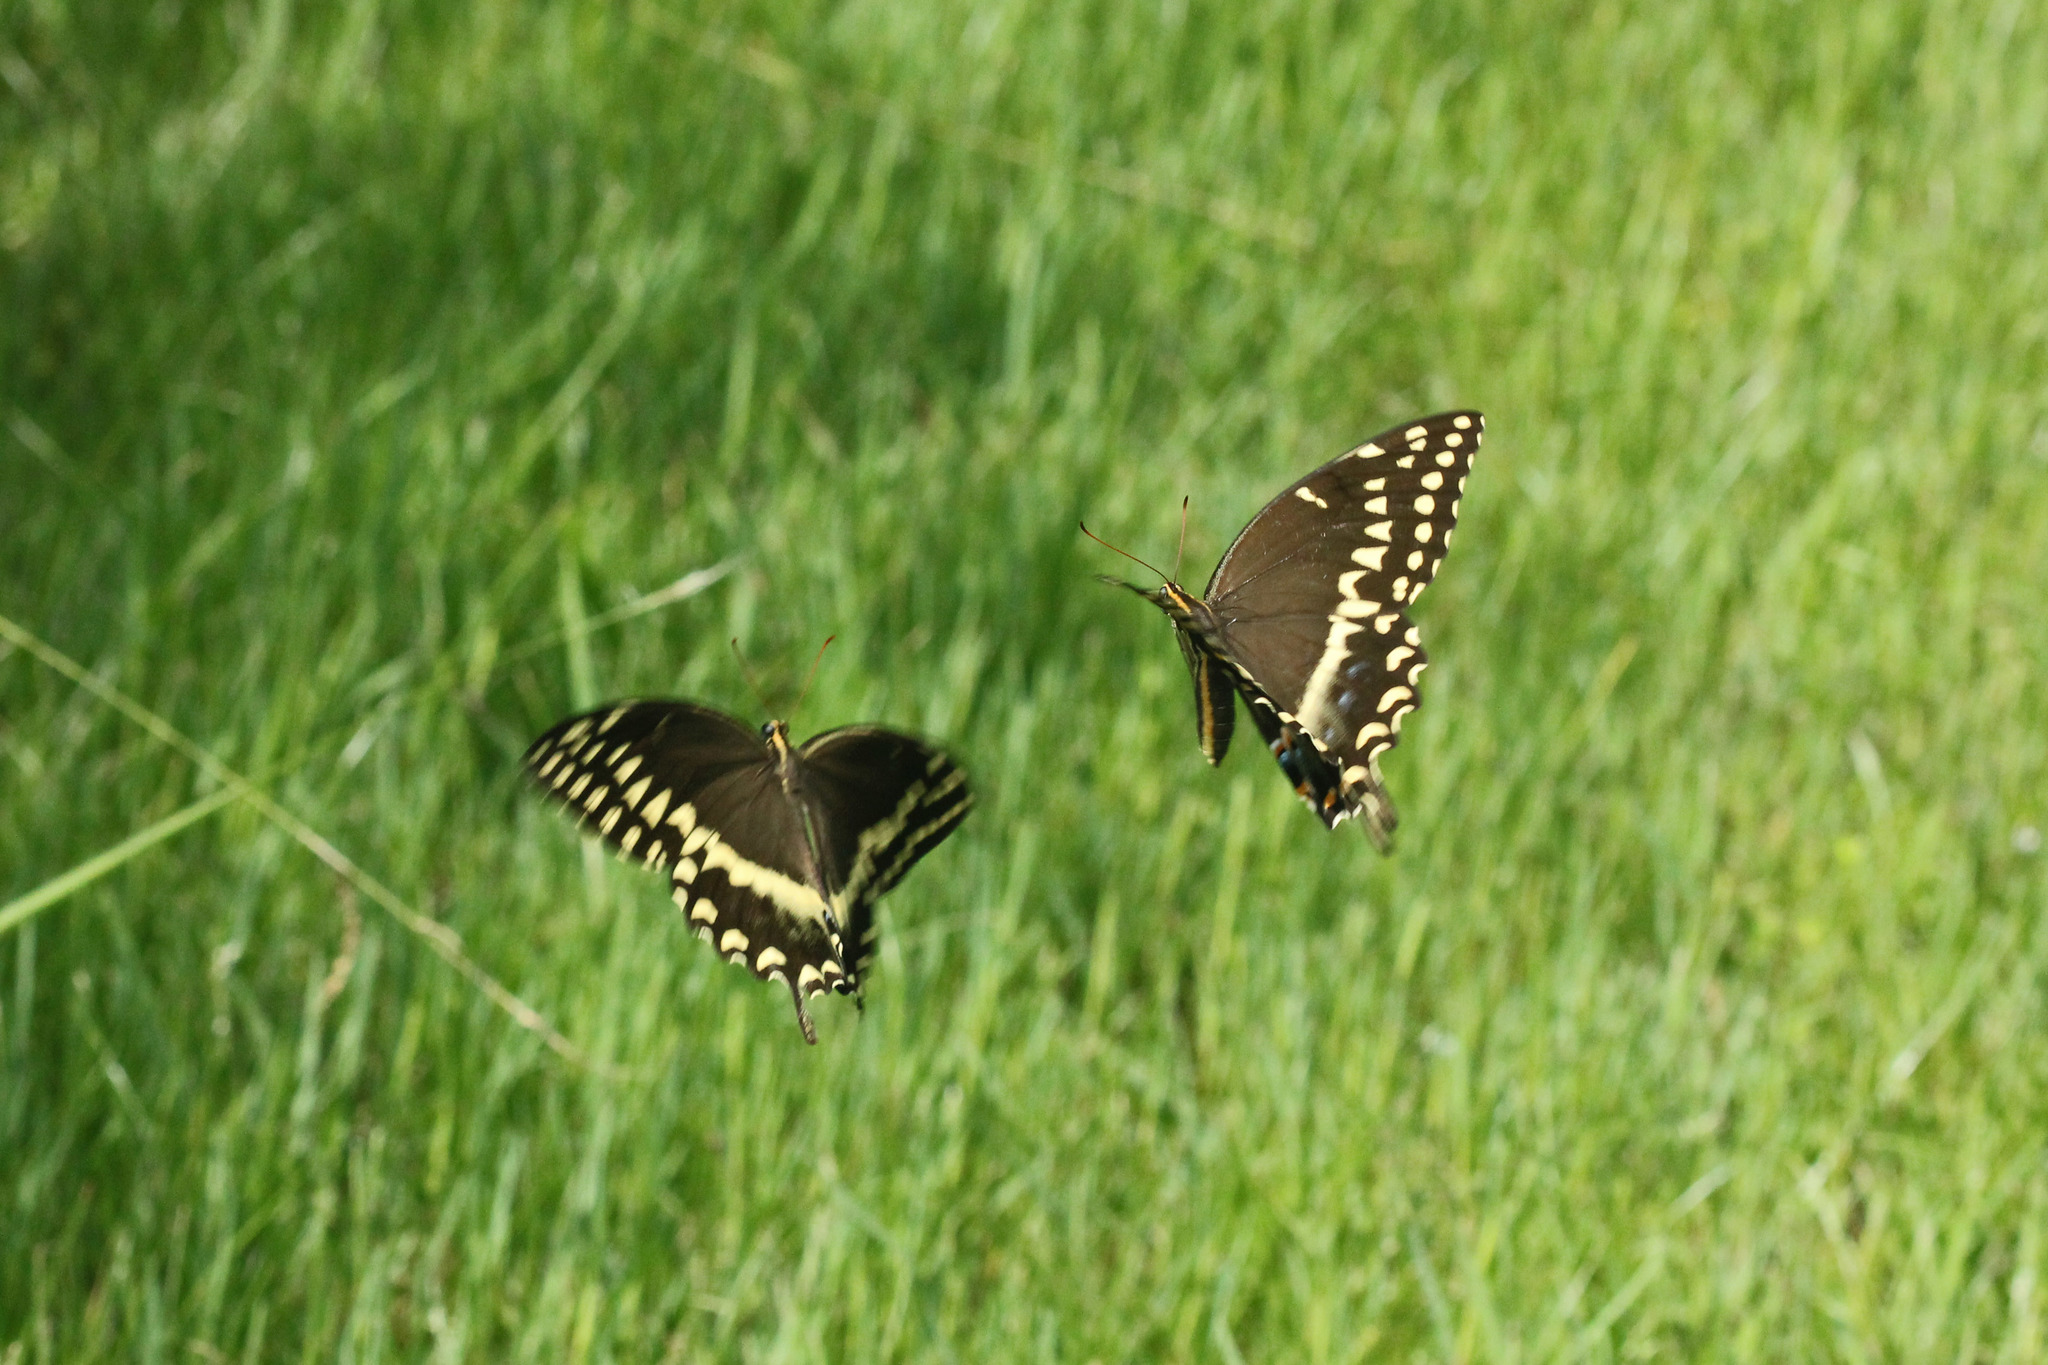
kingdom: Animalia
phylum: Arthropoda
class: Insecta
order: Lepidoptera
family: Papilionidae
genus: Papilio
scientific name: Papilio palamedes
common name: Palamedes swallowtail
